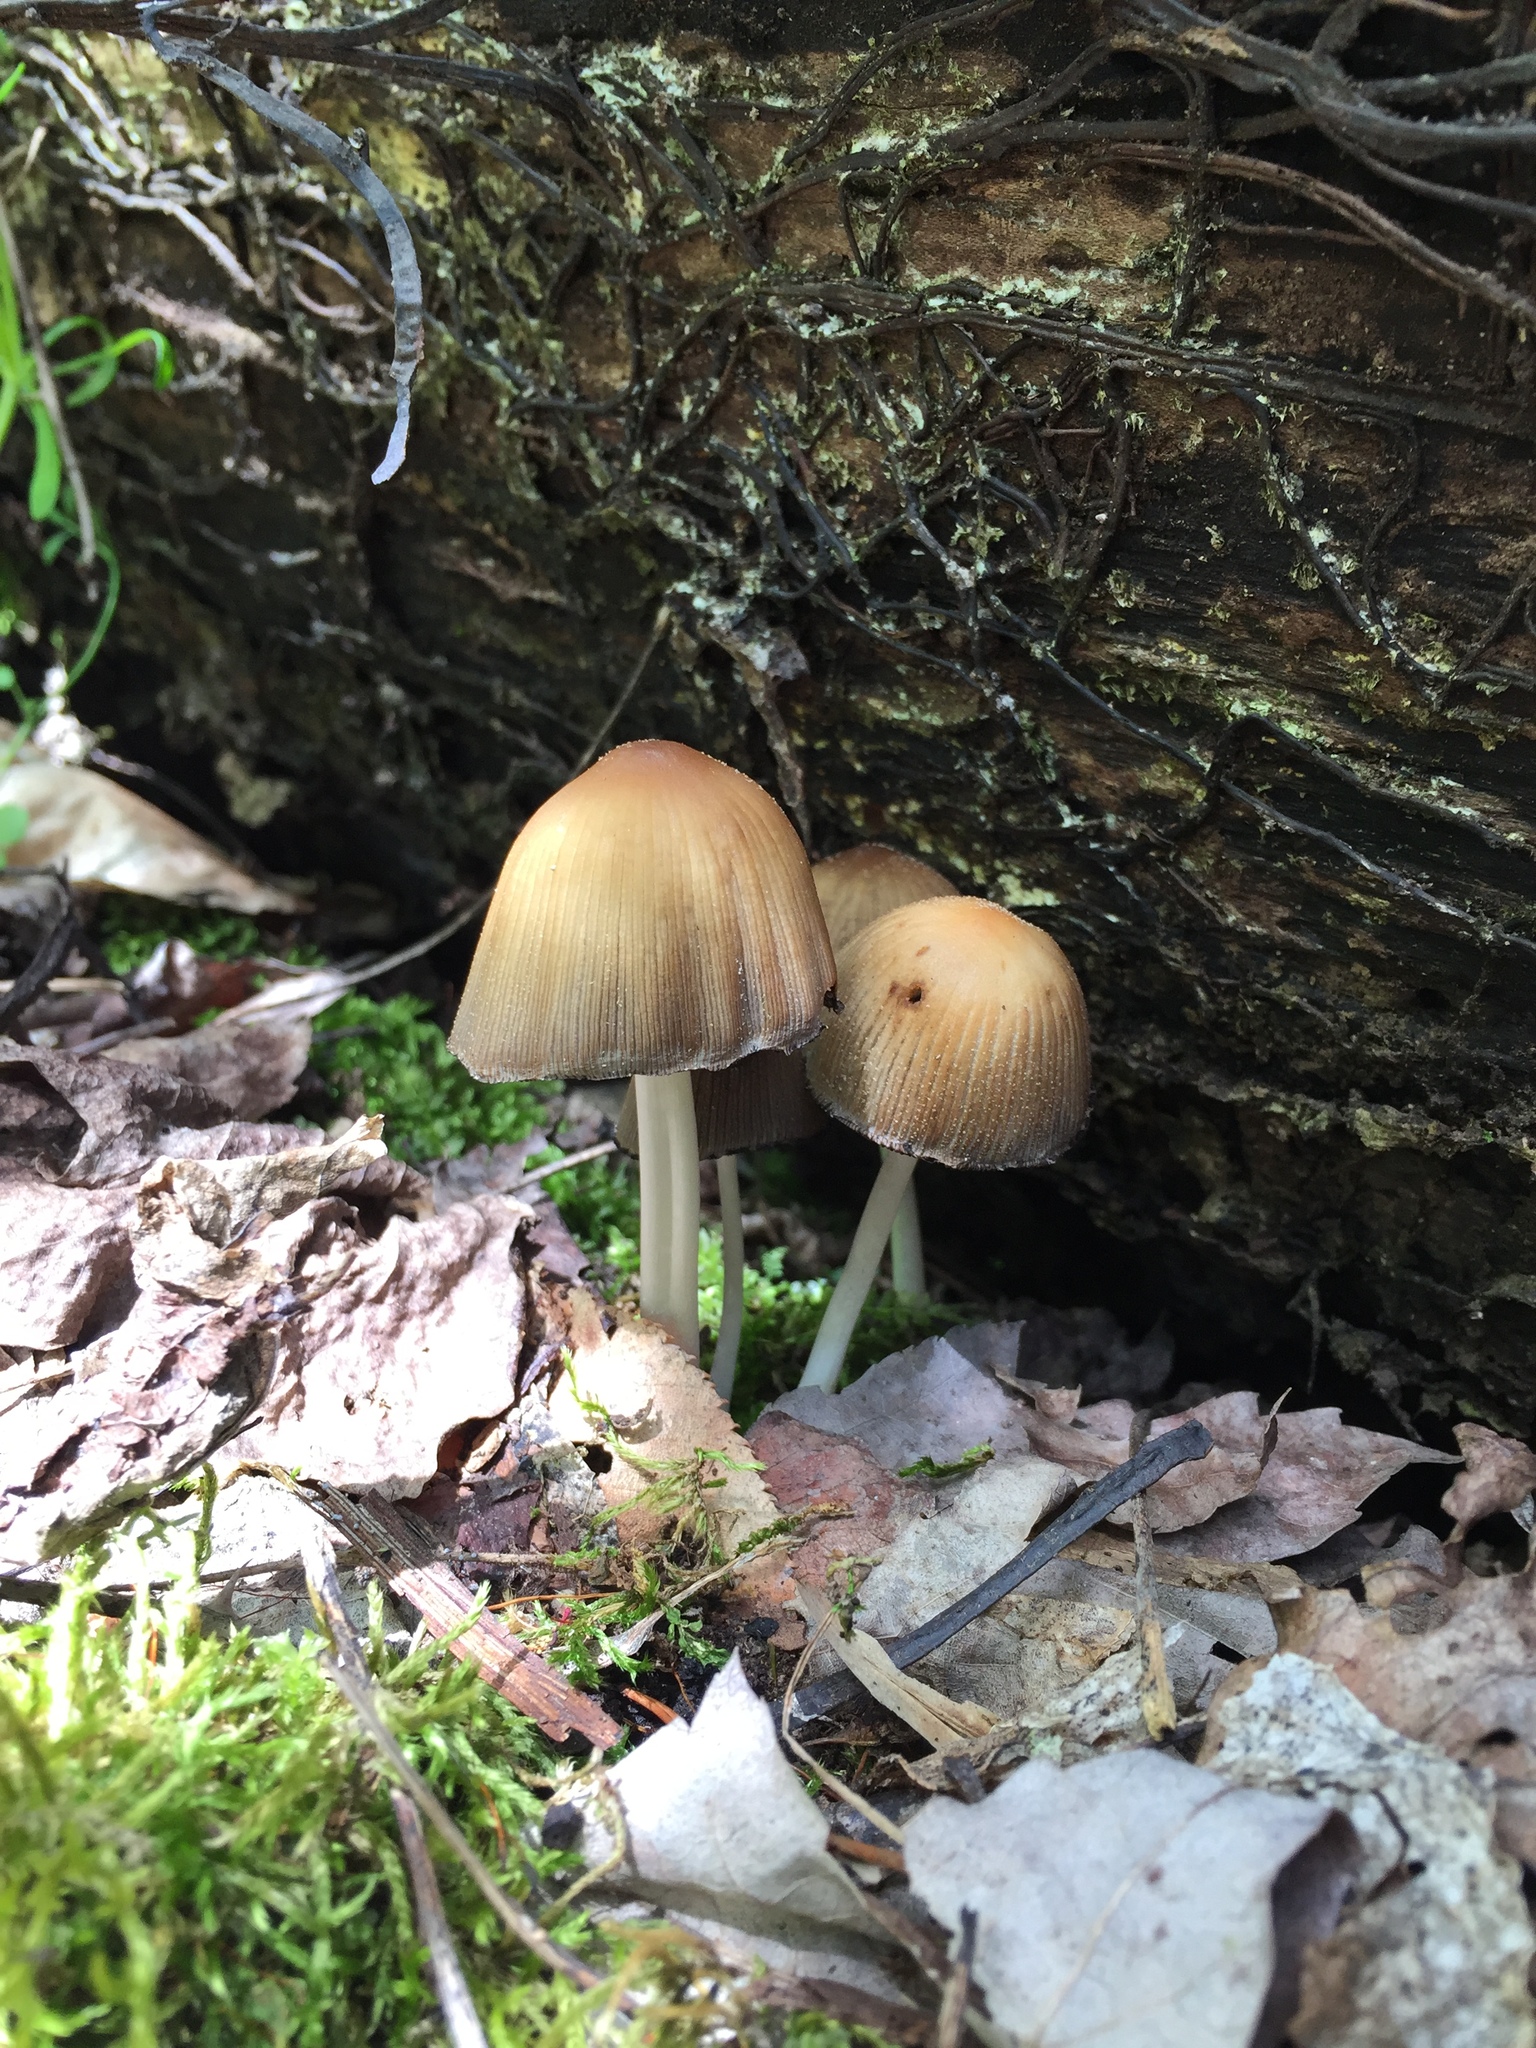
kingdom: Fungi
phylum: Basidiomycota
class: Agaricomycetes
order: Agaricales
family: Psathyrellaceae
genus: Coprinellus
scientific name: Coprinellus micaceus
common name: Glistening ink-cap
